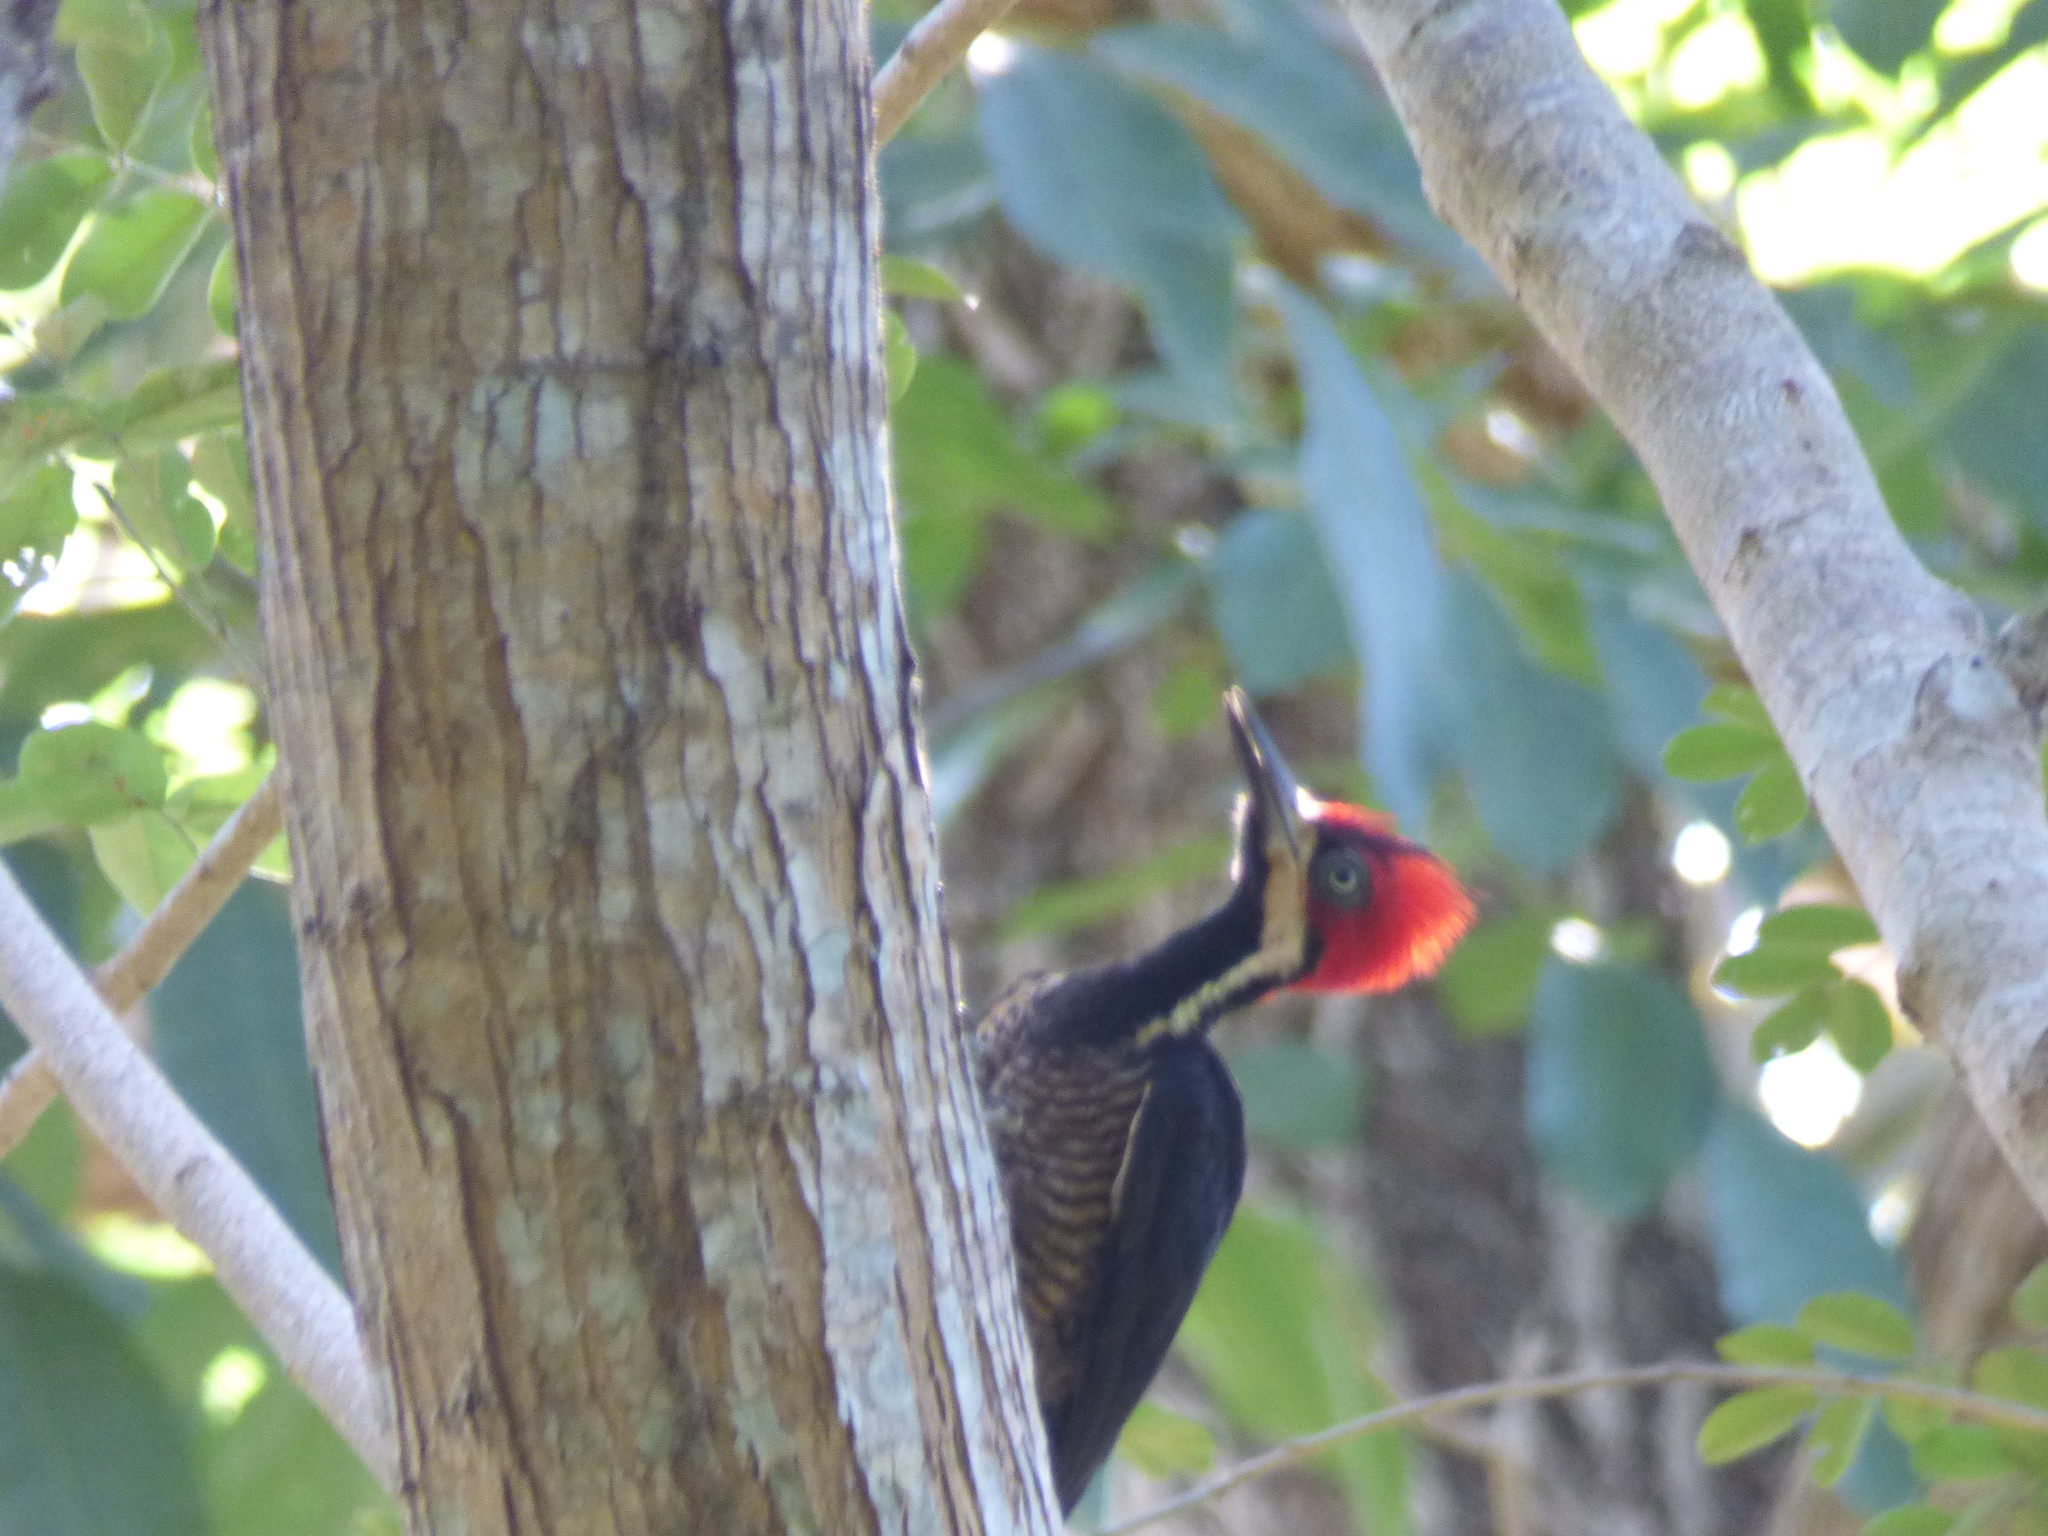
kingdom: Animalia
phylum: Chordata
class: Aves
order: Piciformes
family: Picidae
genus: Campephilus
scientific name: Campephilus melanoleucos
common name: Crimson-crested woodpecker
